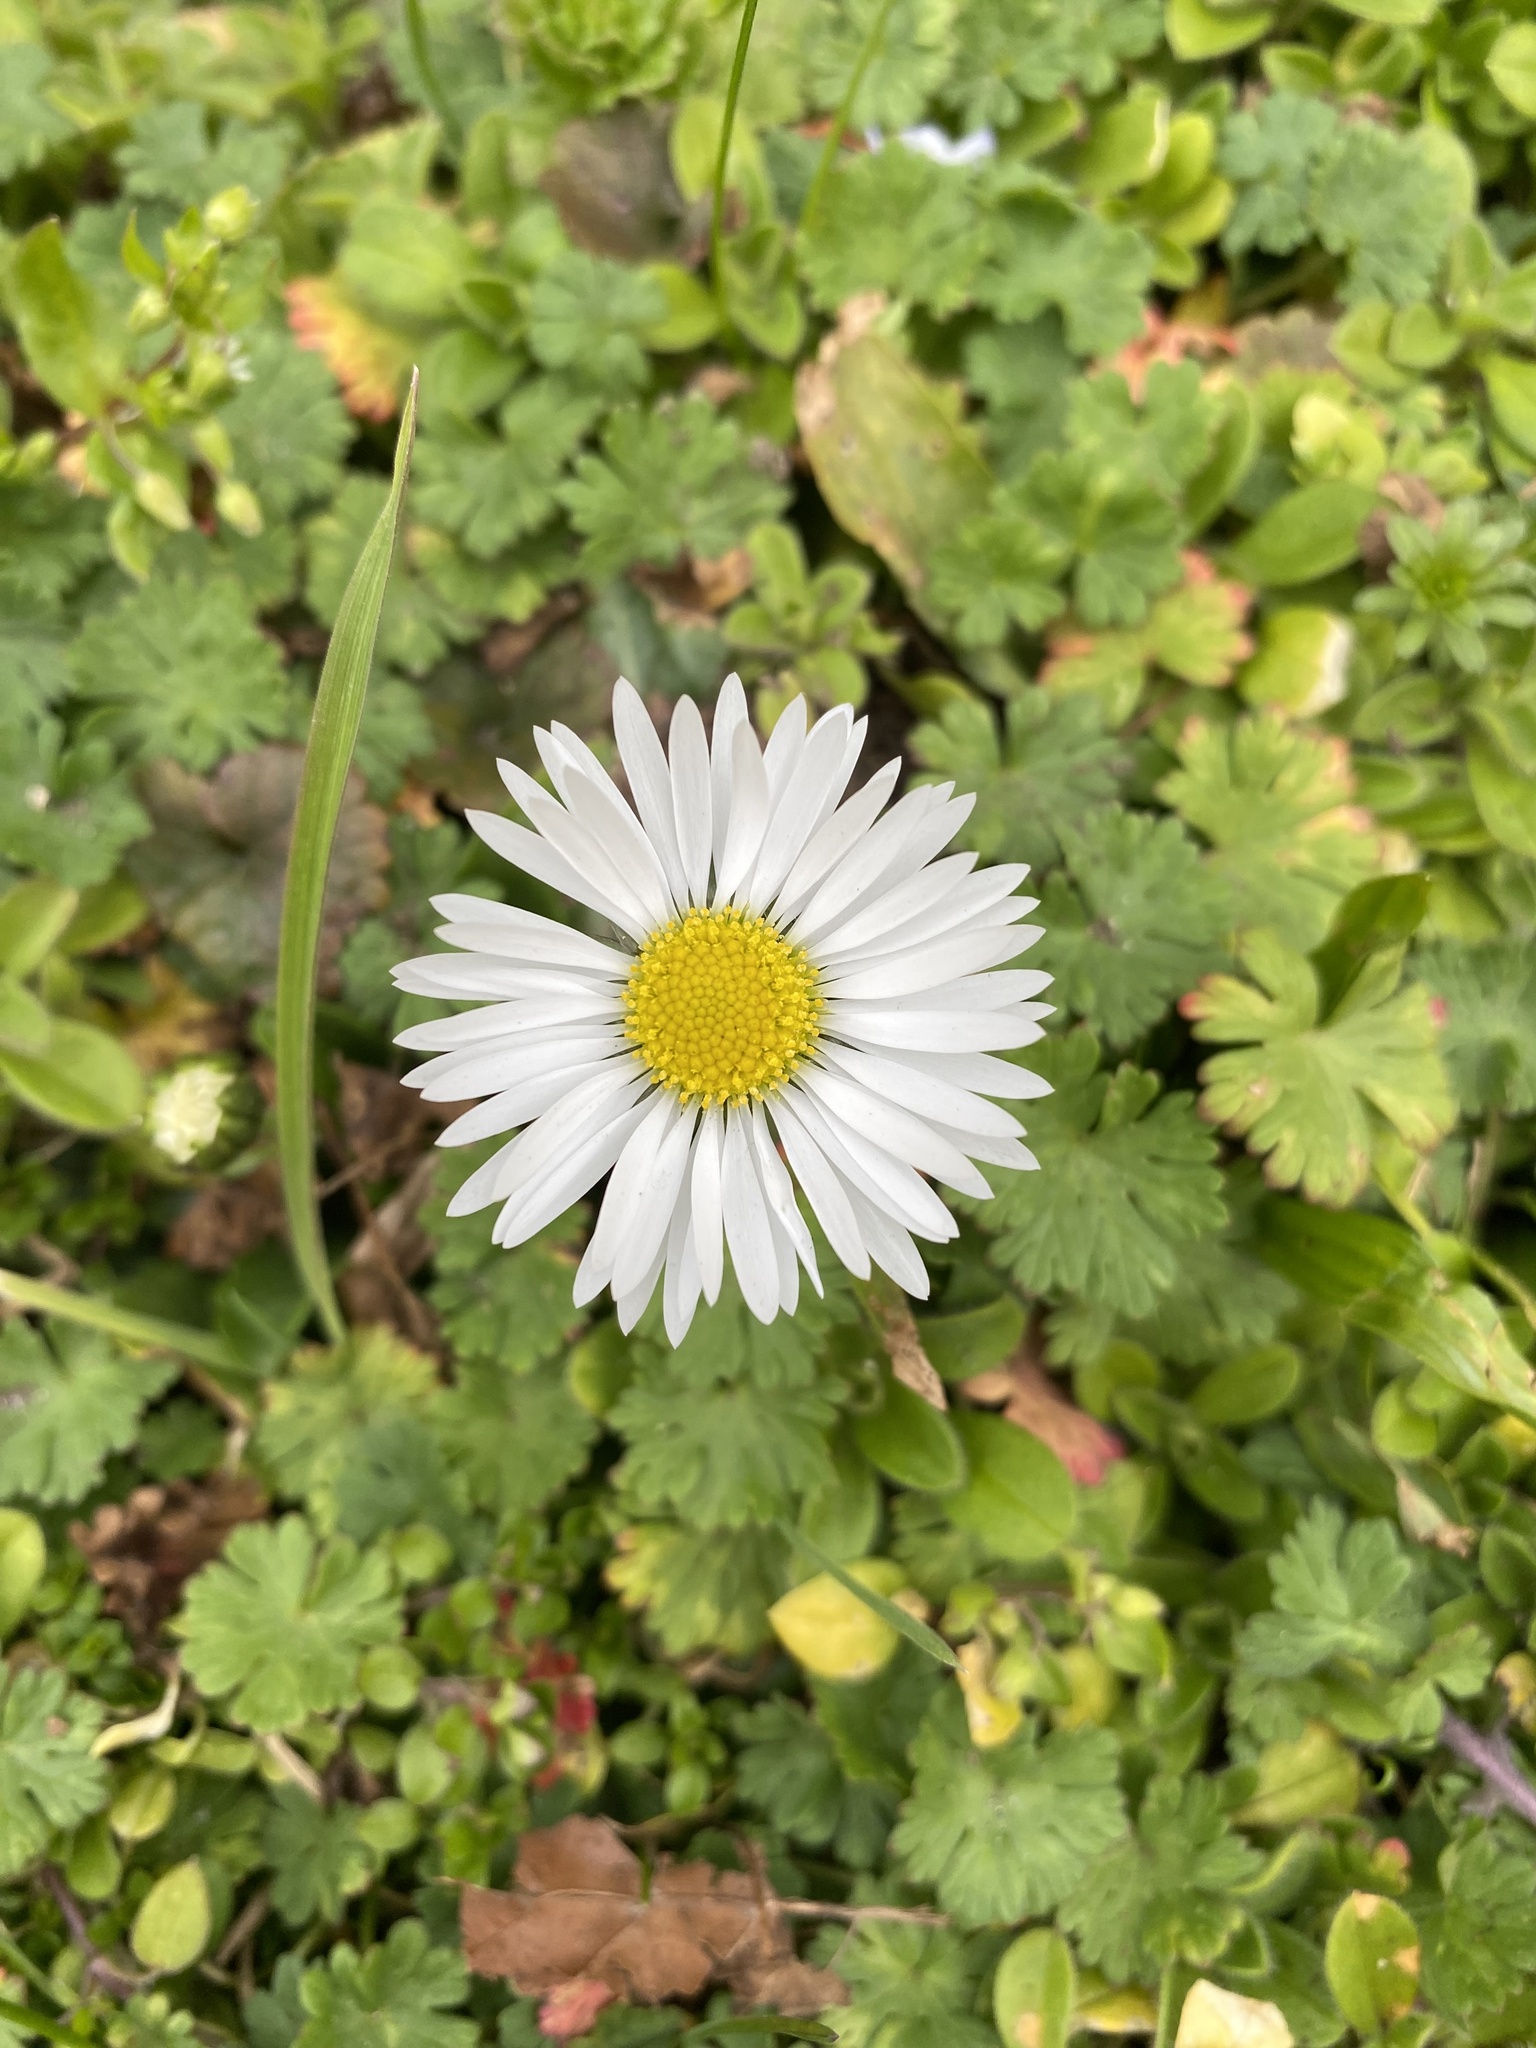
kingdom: Plantae
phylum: Tracheophyta
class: Magnoliopsida
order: Asterales
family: Asteraceae
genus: Bellis
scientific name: Bellis perennis
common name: Lawndaisy
